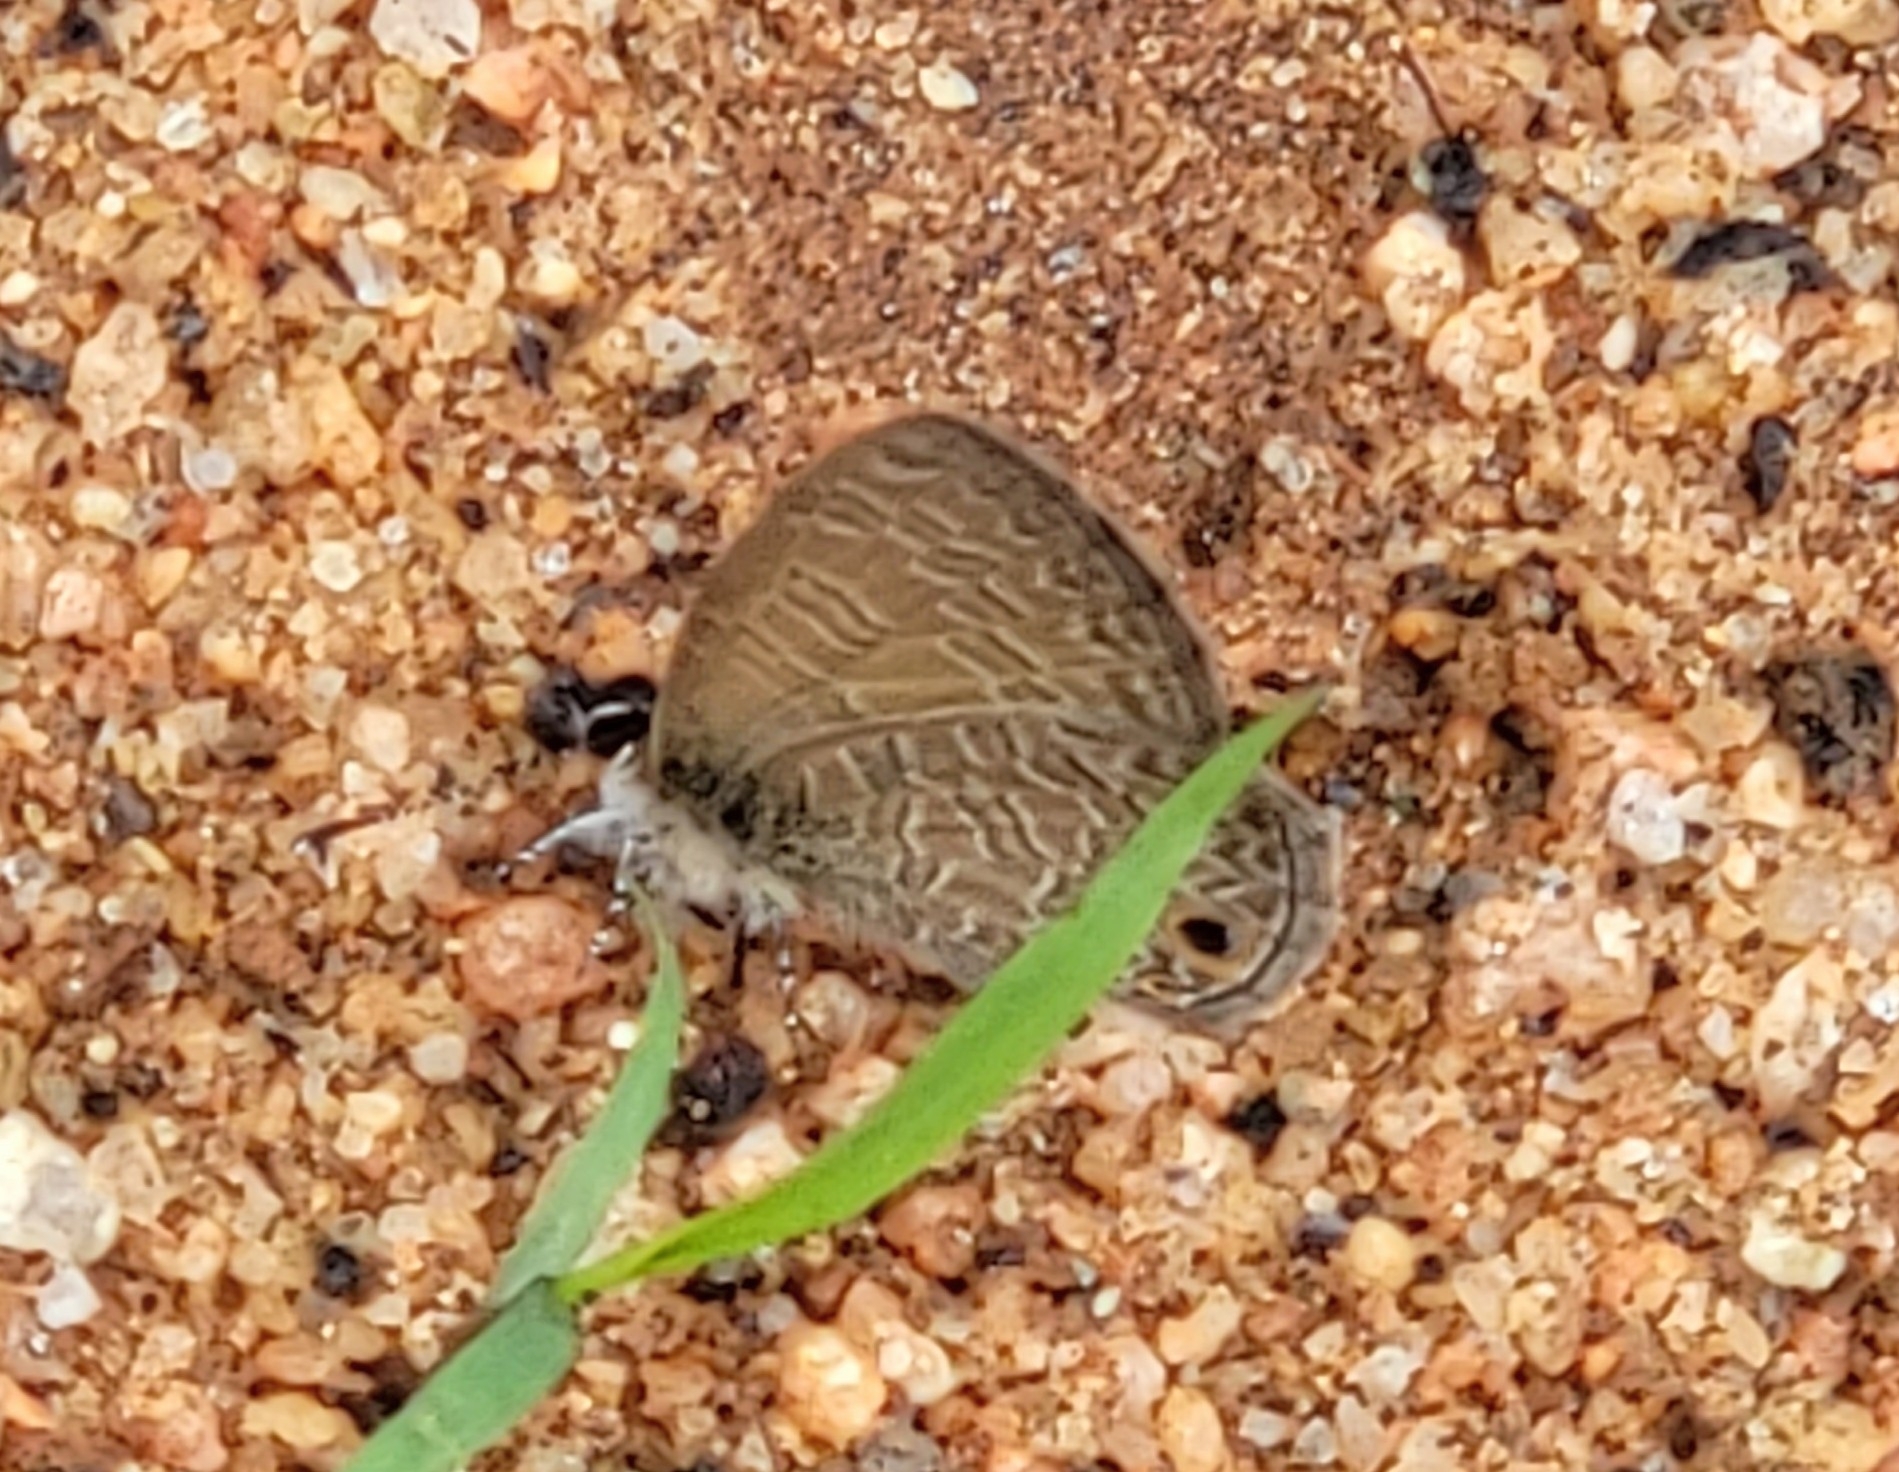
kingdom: Animalia
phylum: Arthropoda
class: Insecta
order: Lepidoptera
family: Lycaenidae
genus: Prosotas
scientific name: Prosotas dubiosa
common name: Tailless lineblue
